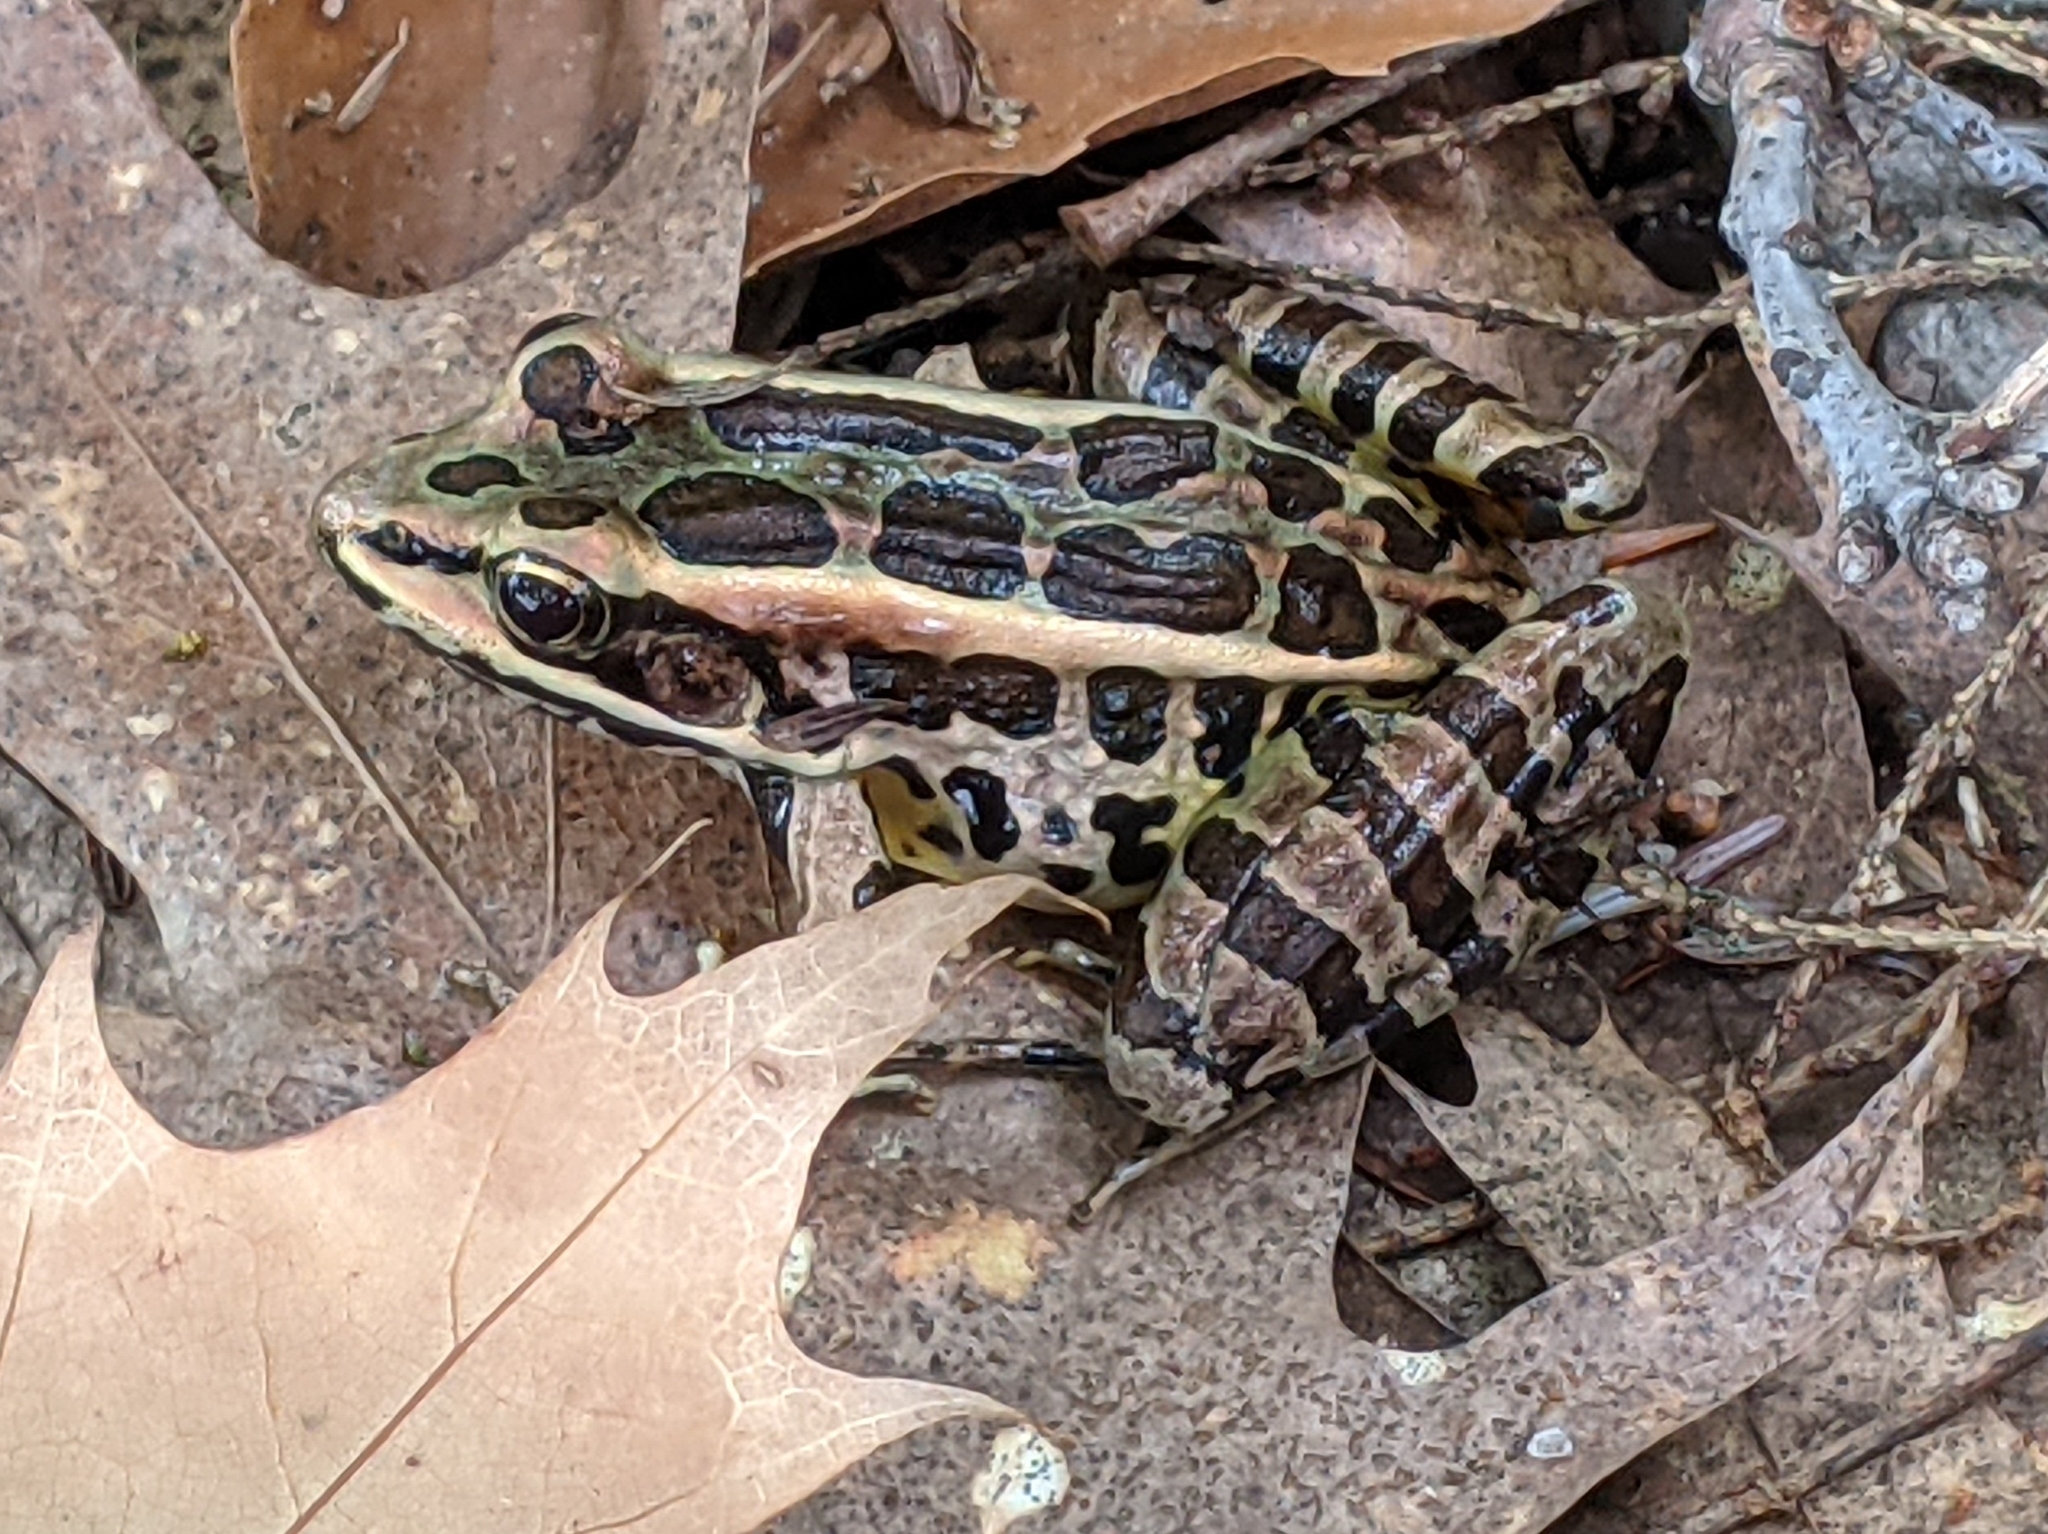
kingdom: Animalia
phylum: Chordata
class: Amphibia
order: Anura
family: Ranidae
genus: Lithobates
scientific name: Lithobates palustris
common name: Pickerel frog
